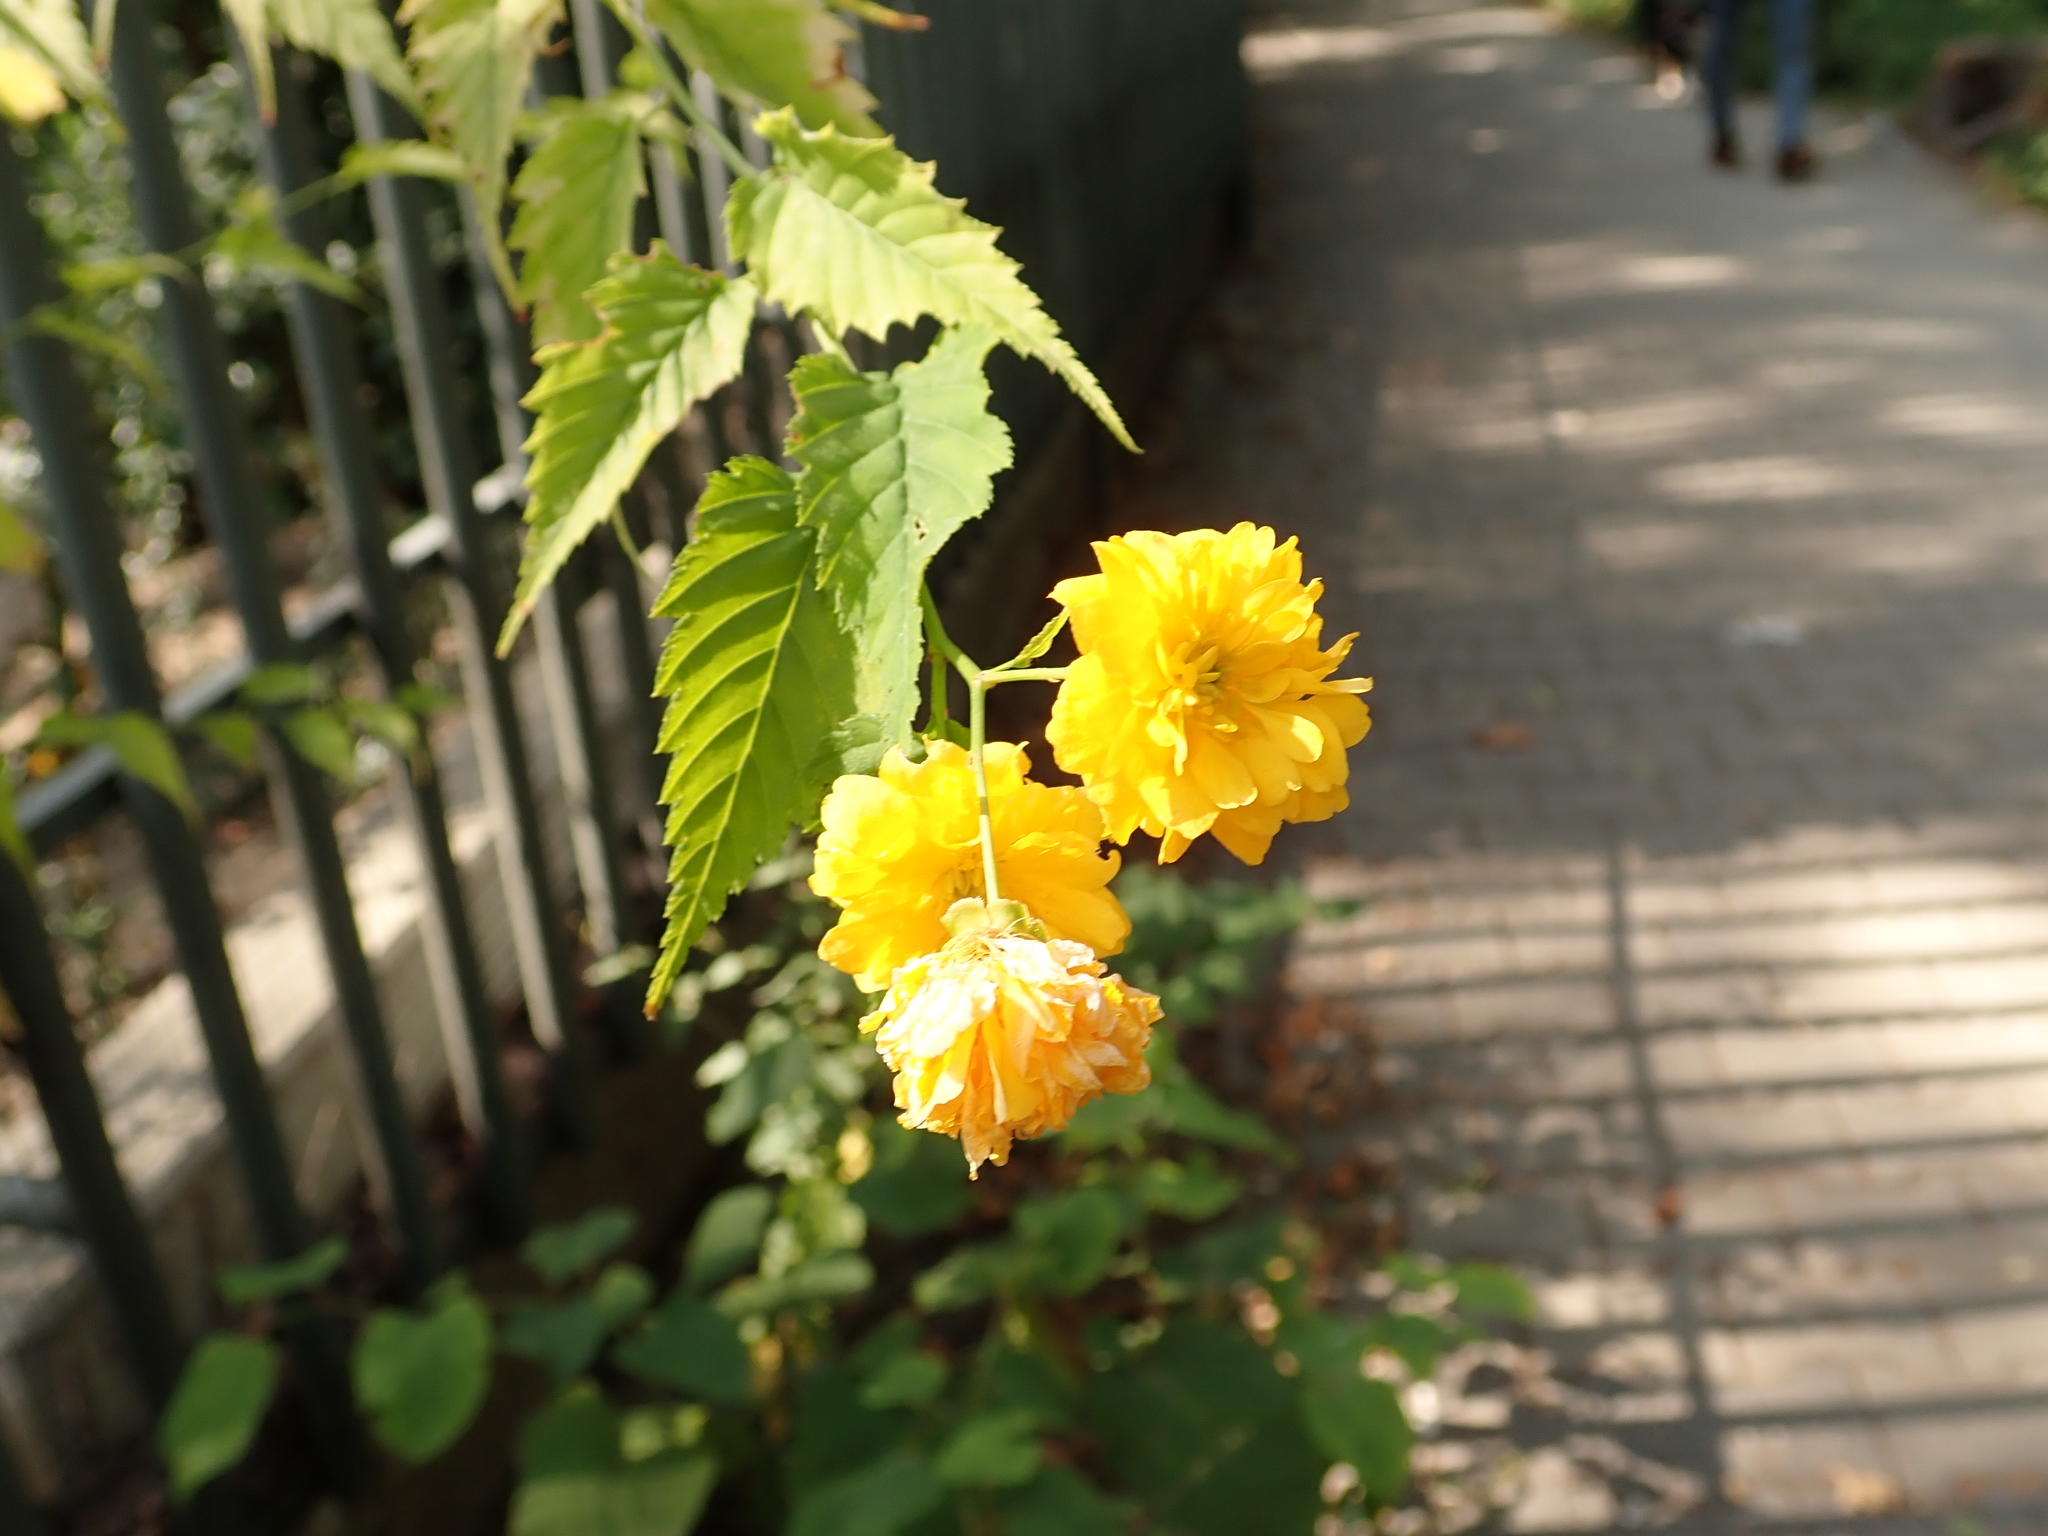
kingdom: Plantae
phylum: Tracheophyta
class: Magnoliopsida
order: Rosales
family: Rosaceae
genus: Kerria
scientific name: Kerria japonica
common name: Japanese kerria
